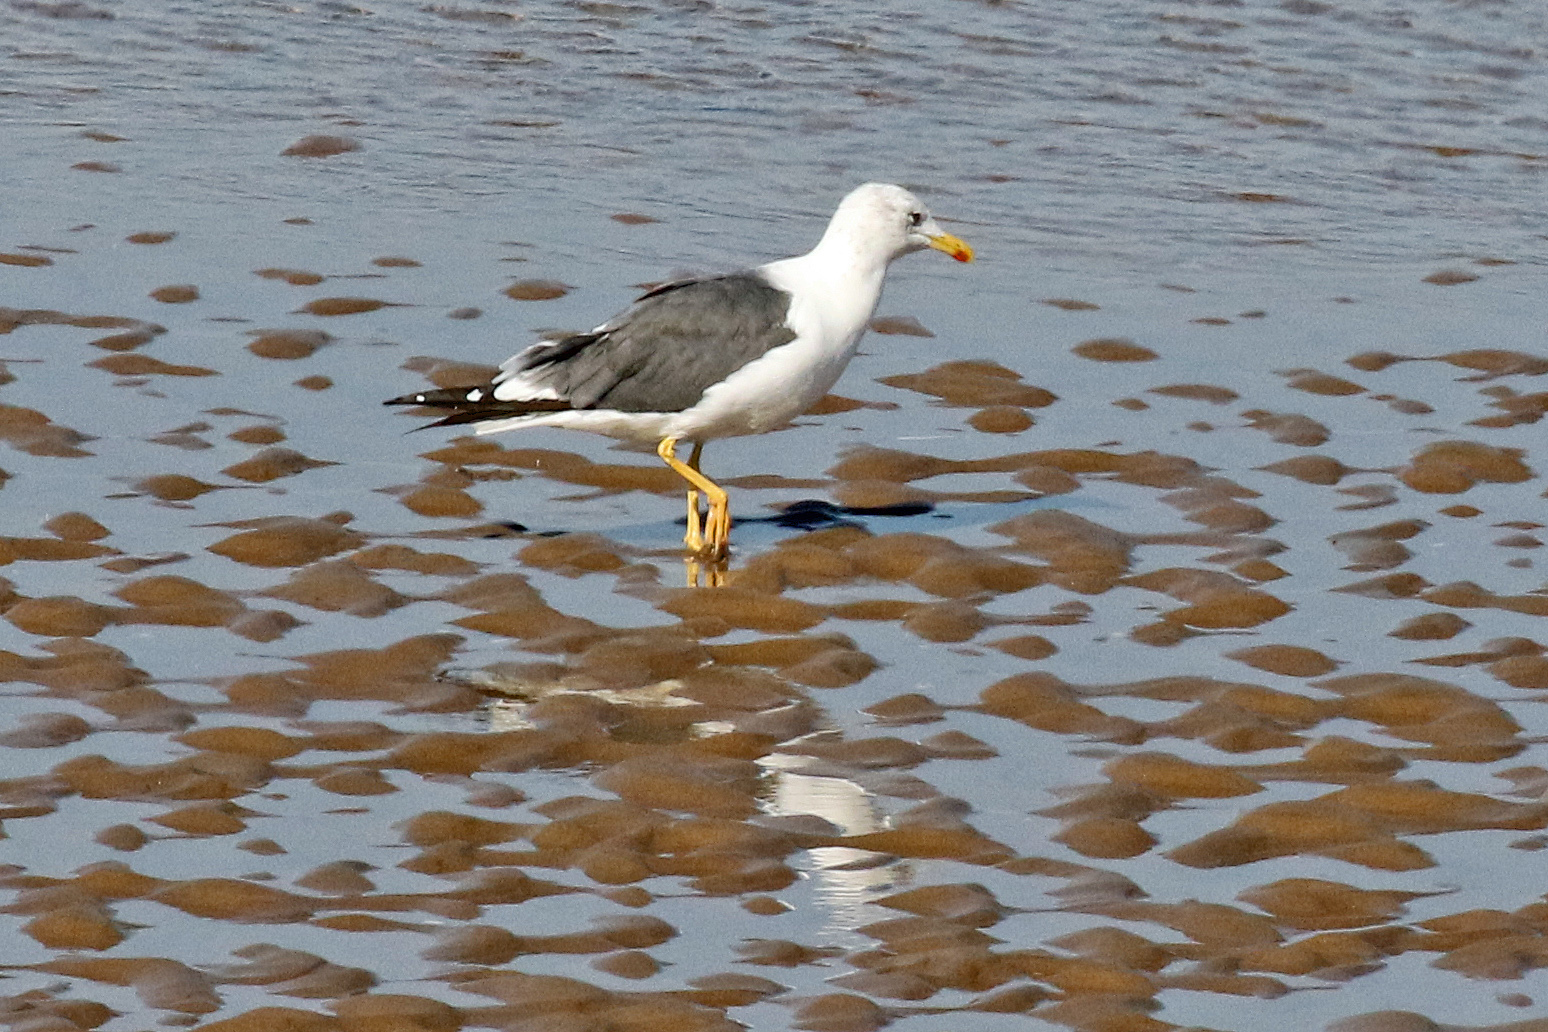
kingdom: Animalia
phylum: Chordata
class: Aves
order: Charadriiformes
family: Laridae
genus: Larus
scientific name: Larus fuscus
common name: Lesser black-backed gull
